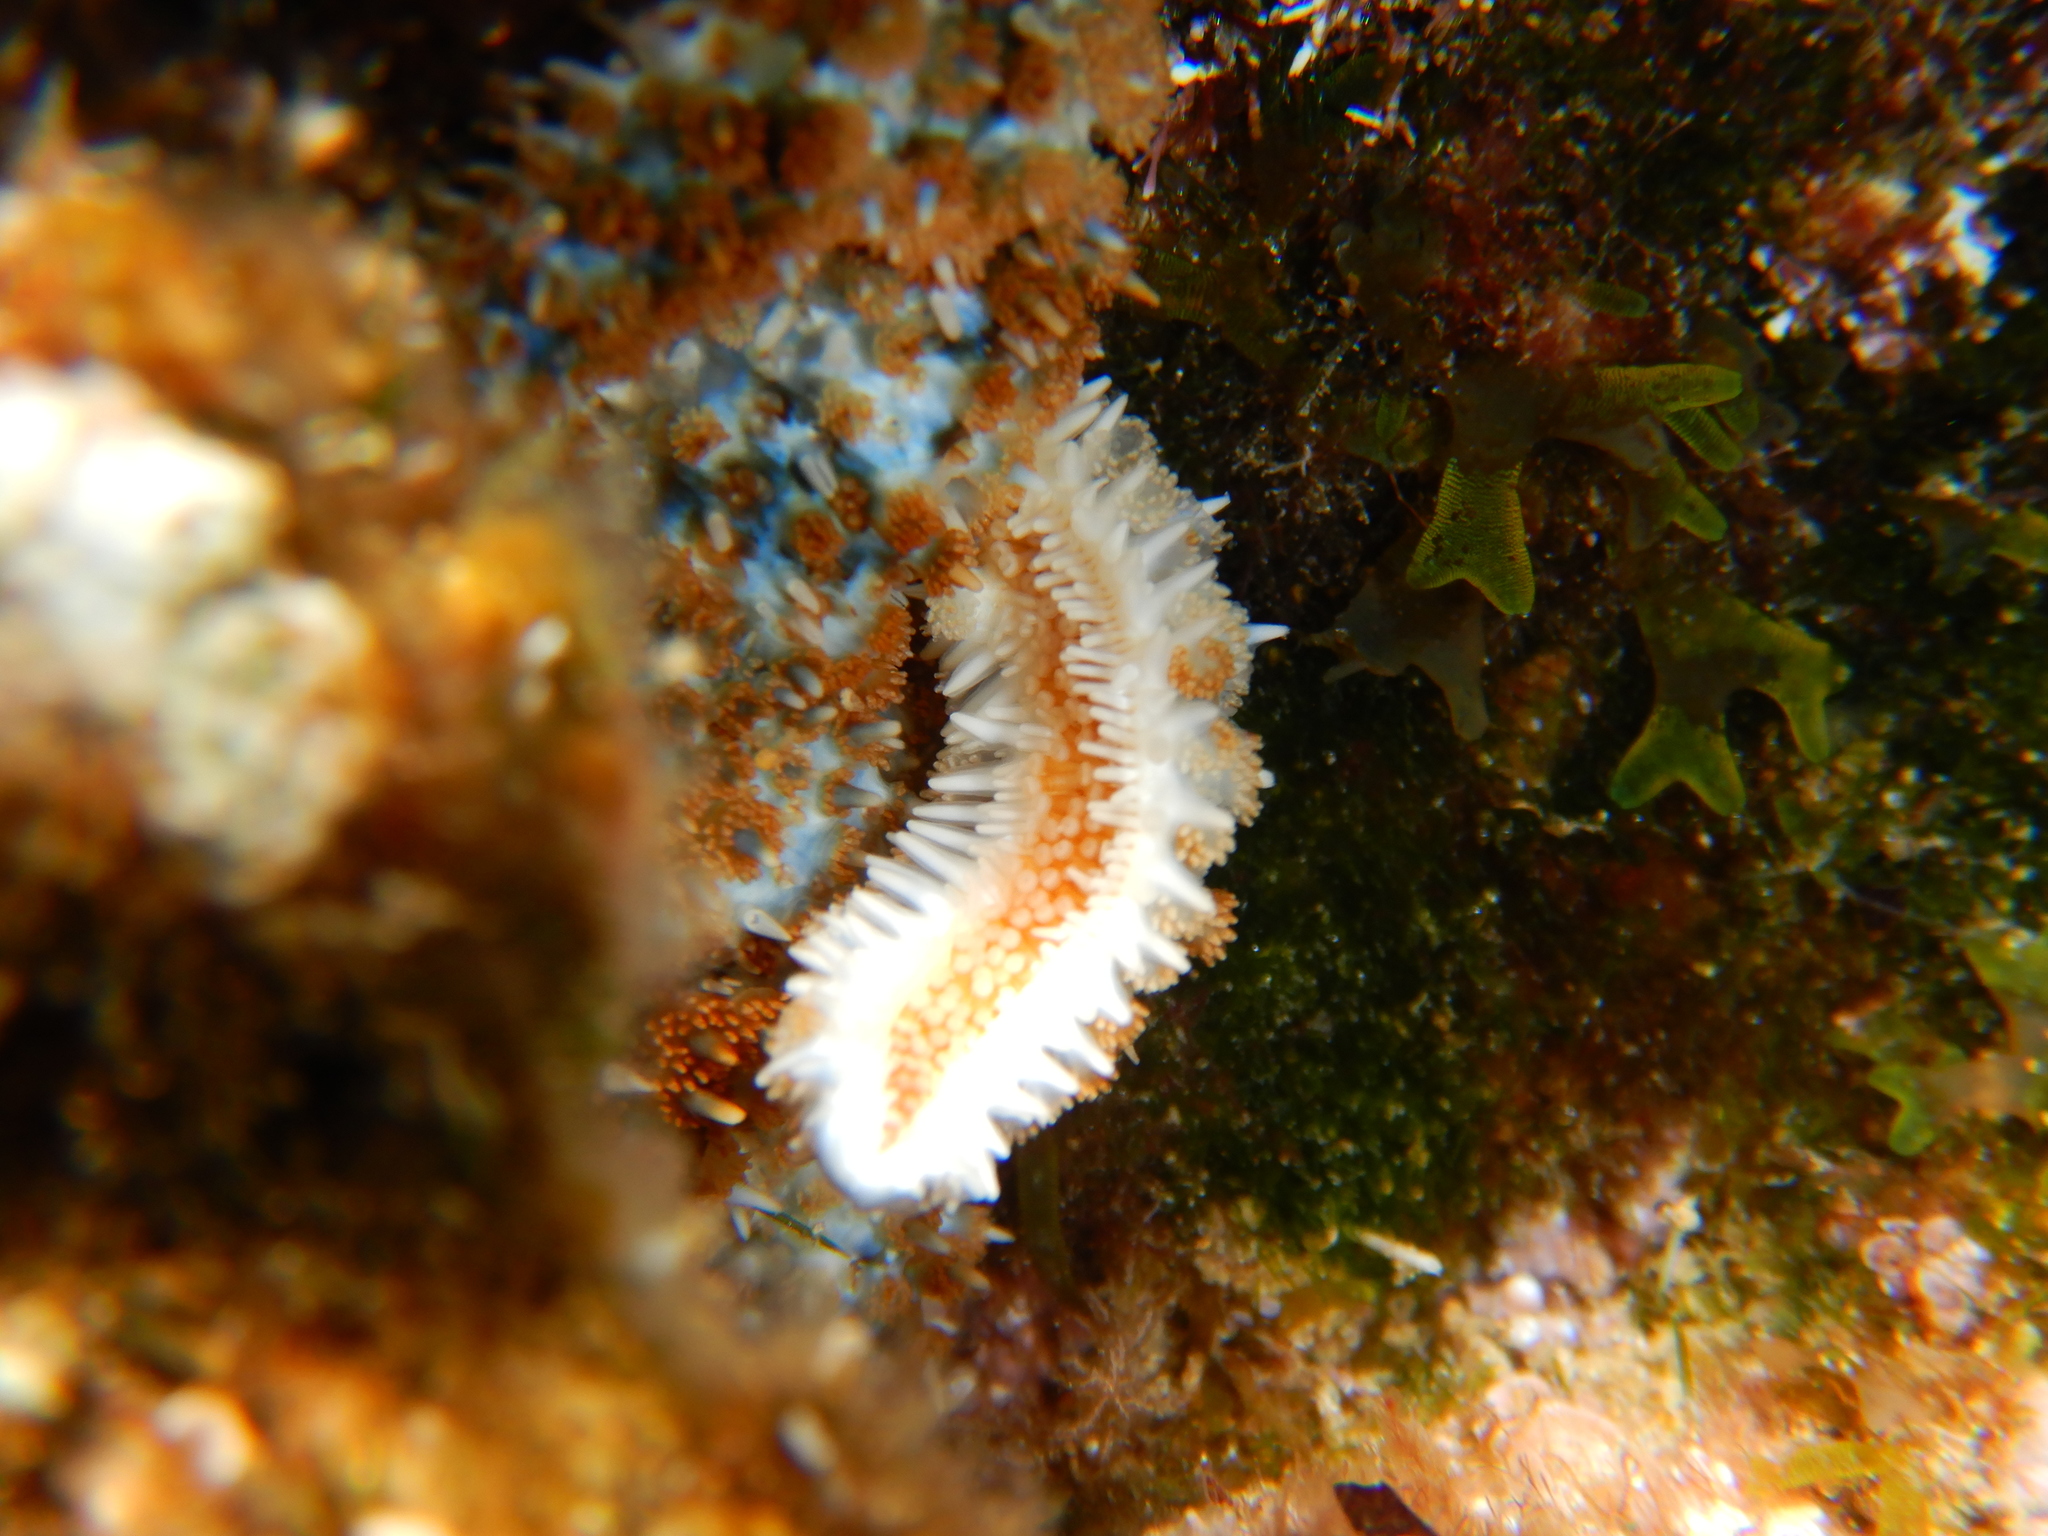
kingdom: Animalia
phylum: Echinodermata
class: Asteroidea
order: Forcipulatida
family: Asteriidae
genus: Coscinasterias
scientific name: Coscinasterias tenuispina
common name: Blue spiny starfish
